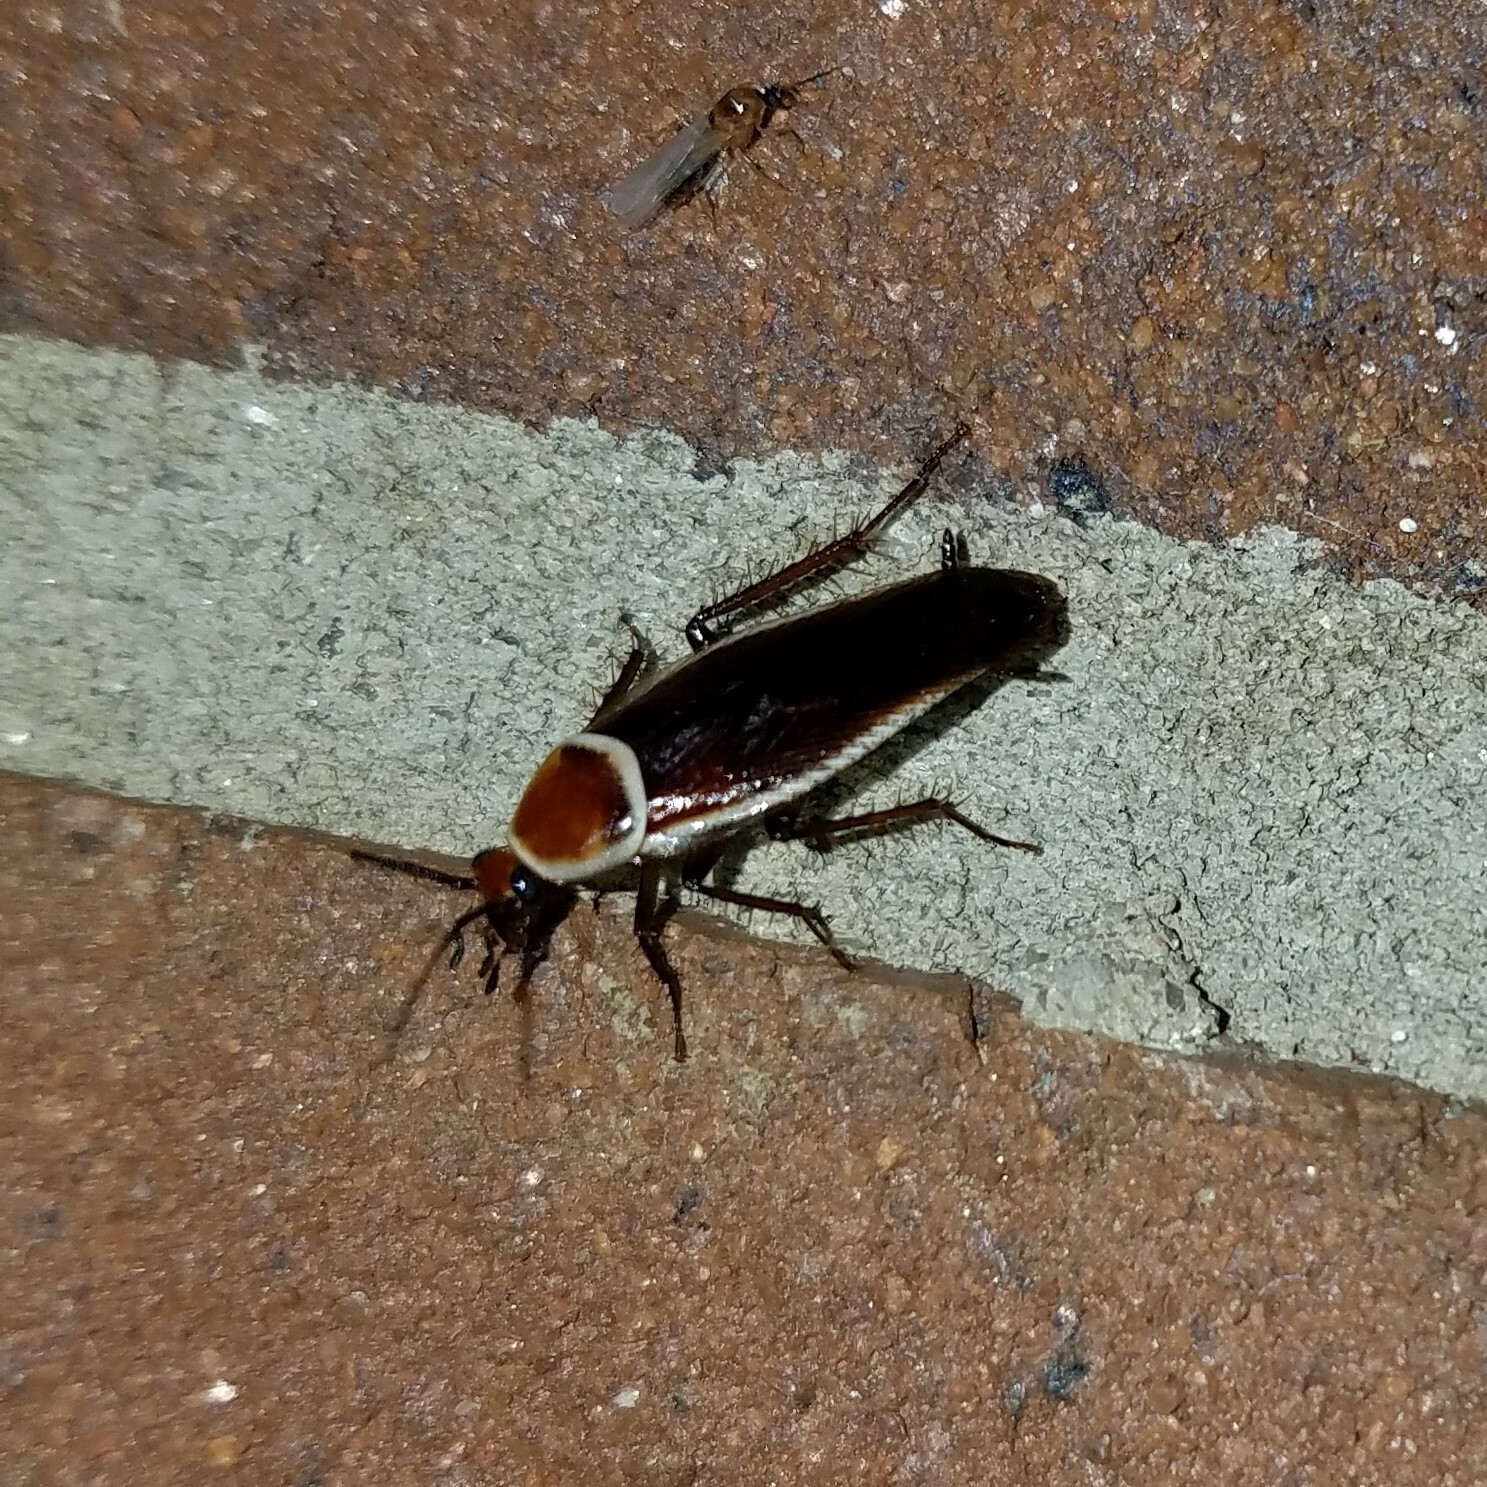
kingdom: Animalia
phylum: Arthropoda
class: Insecta
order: Blattodea
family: Ectobiidae
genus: Pseudomops
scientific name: Pseudomops septentrionalis
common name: Pale-bordered field cockroach
